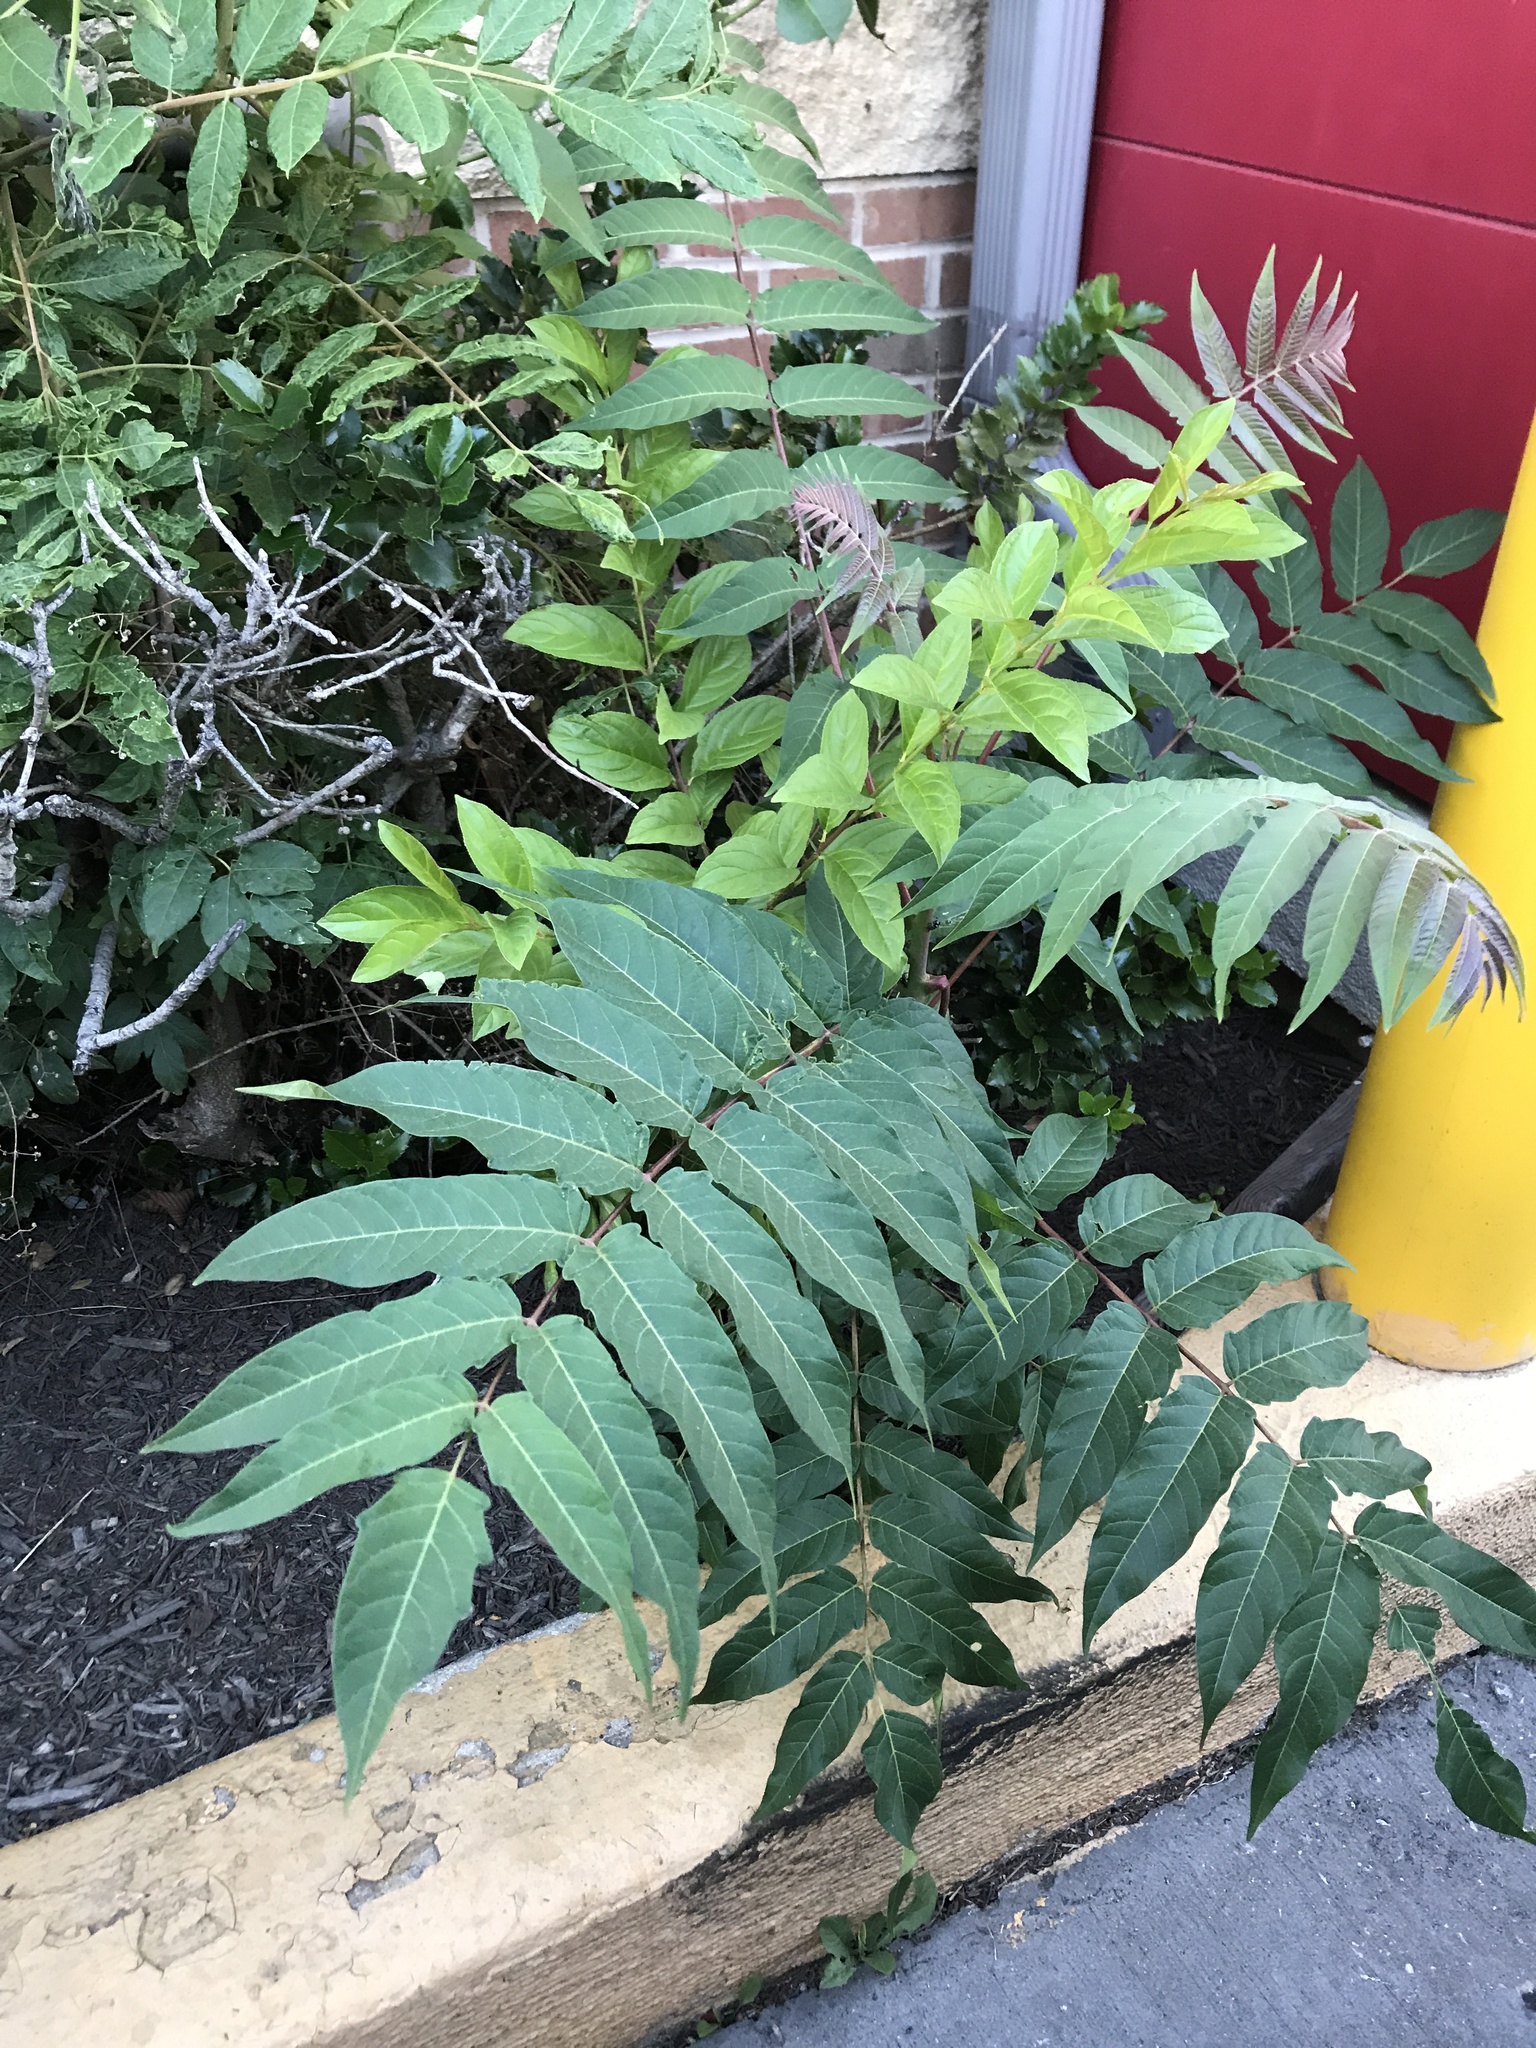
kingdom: Plantae
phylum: Tracheophyta
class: Magnoliopsida
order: Sapindales
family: Simaroubaceae
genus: Ailanthus
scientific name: Ailanthus altissima
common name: Tree-of-heaven
